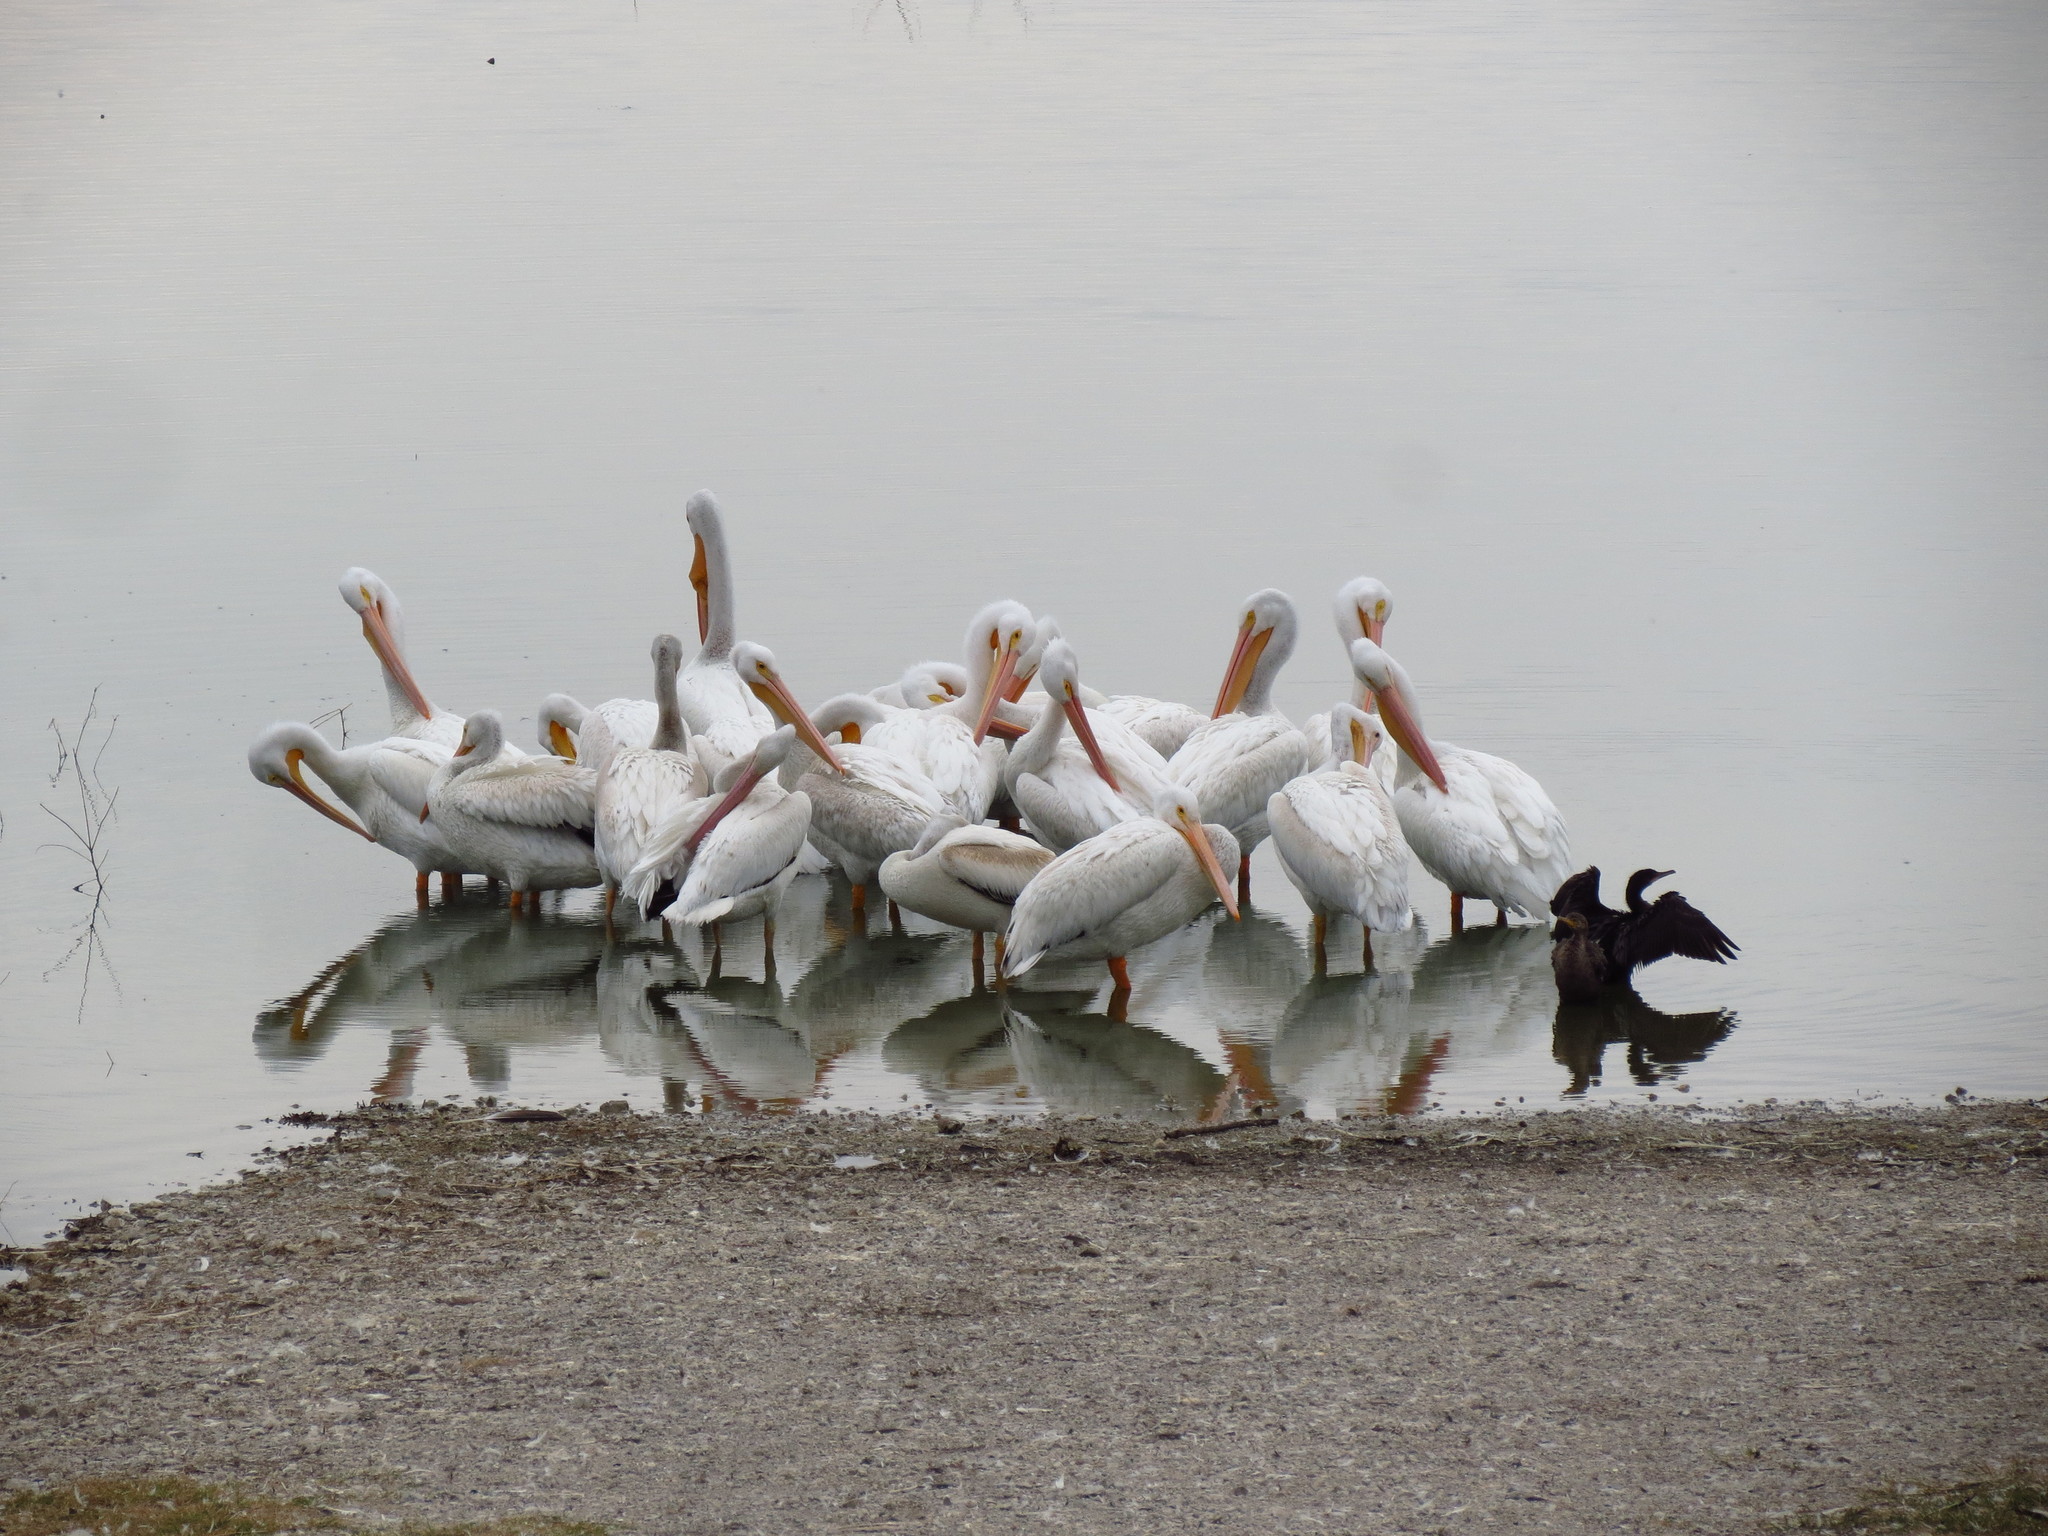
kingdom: Animalia
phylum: Chordata
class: Aves
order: Pelecaniformes
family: Pelecanidae
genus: Pelecanus
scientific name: Pelecanus erythrorhynchos
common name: American white pelican
